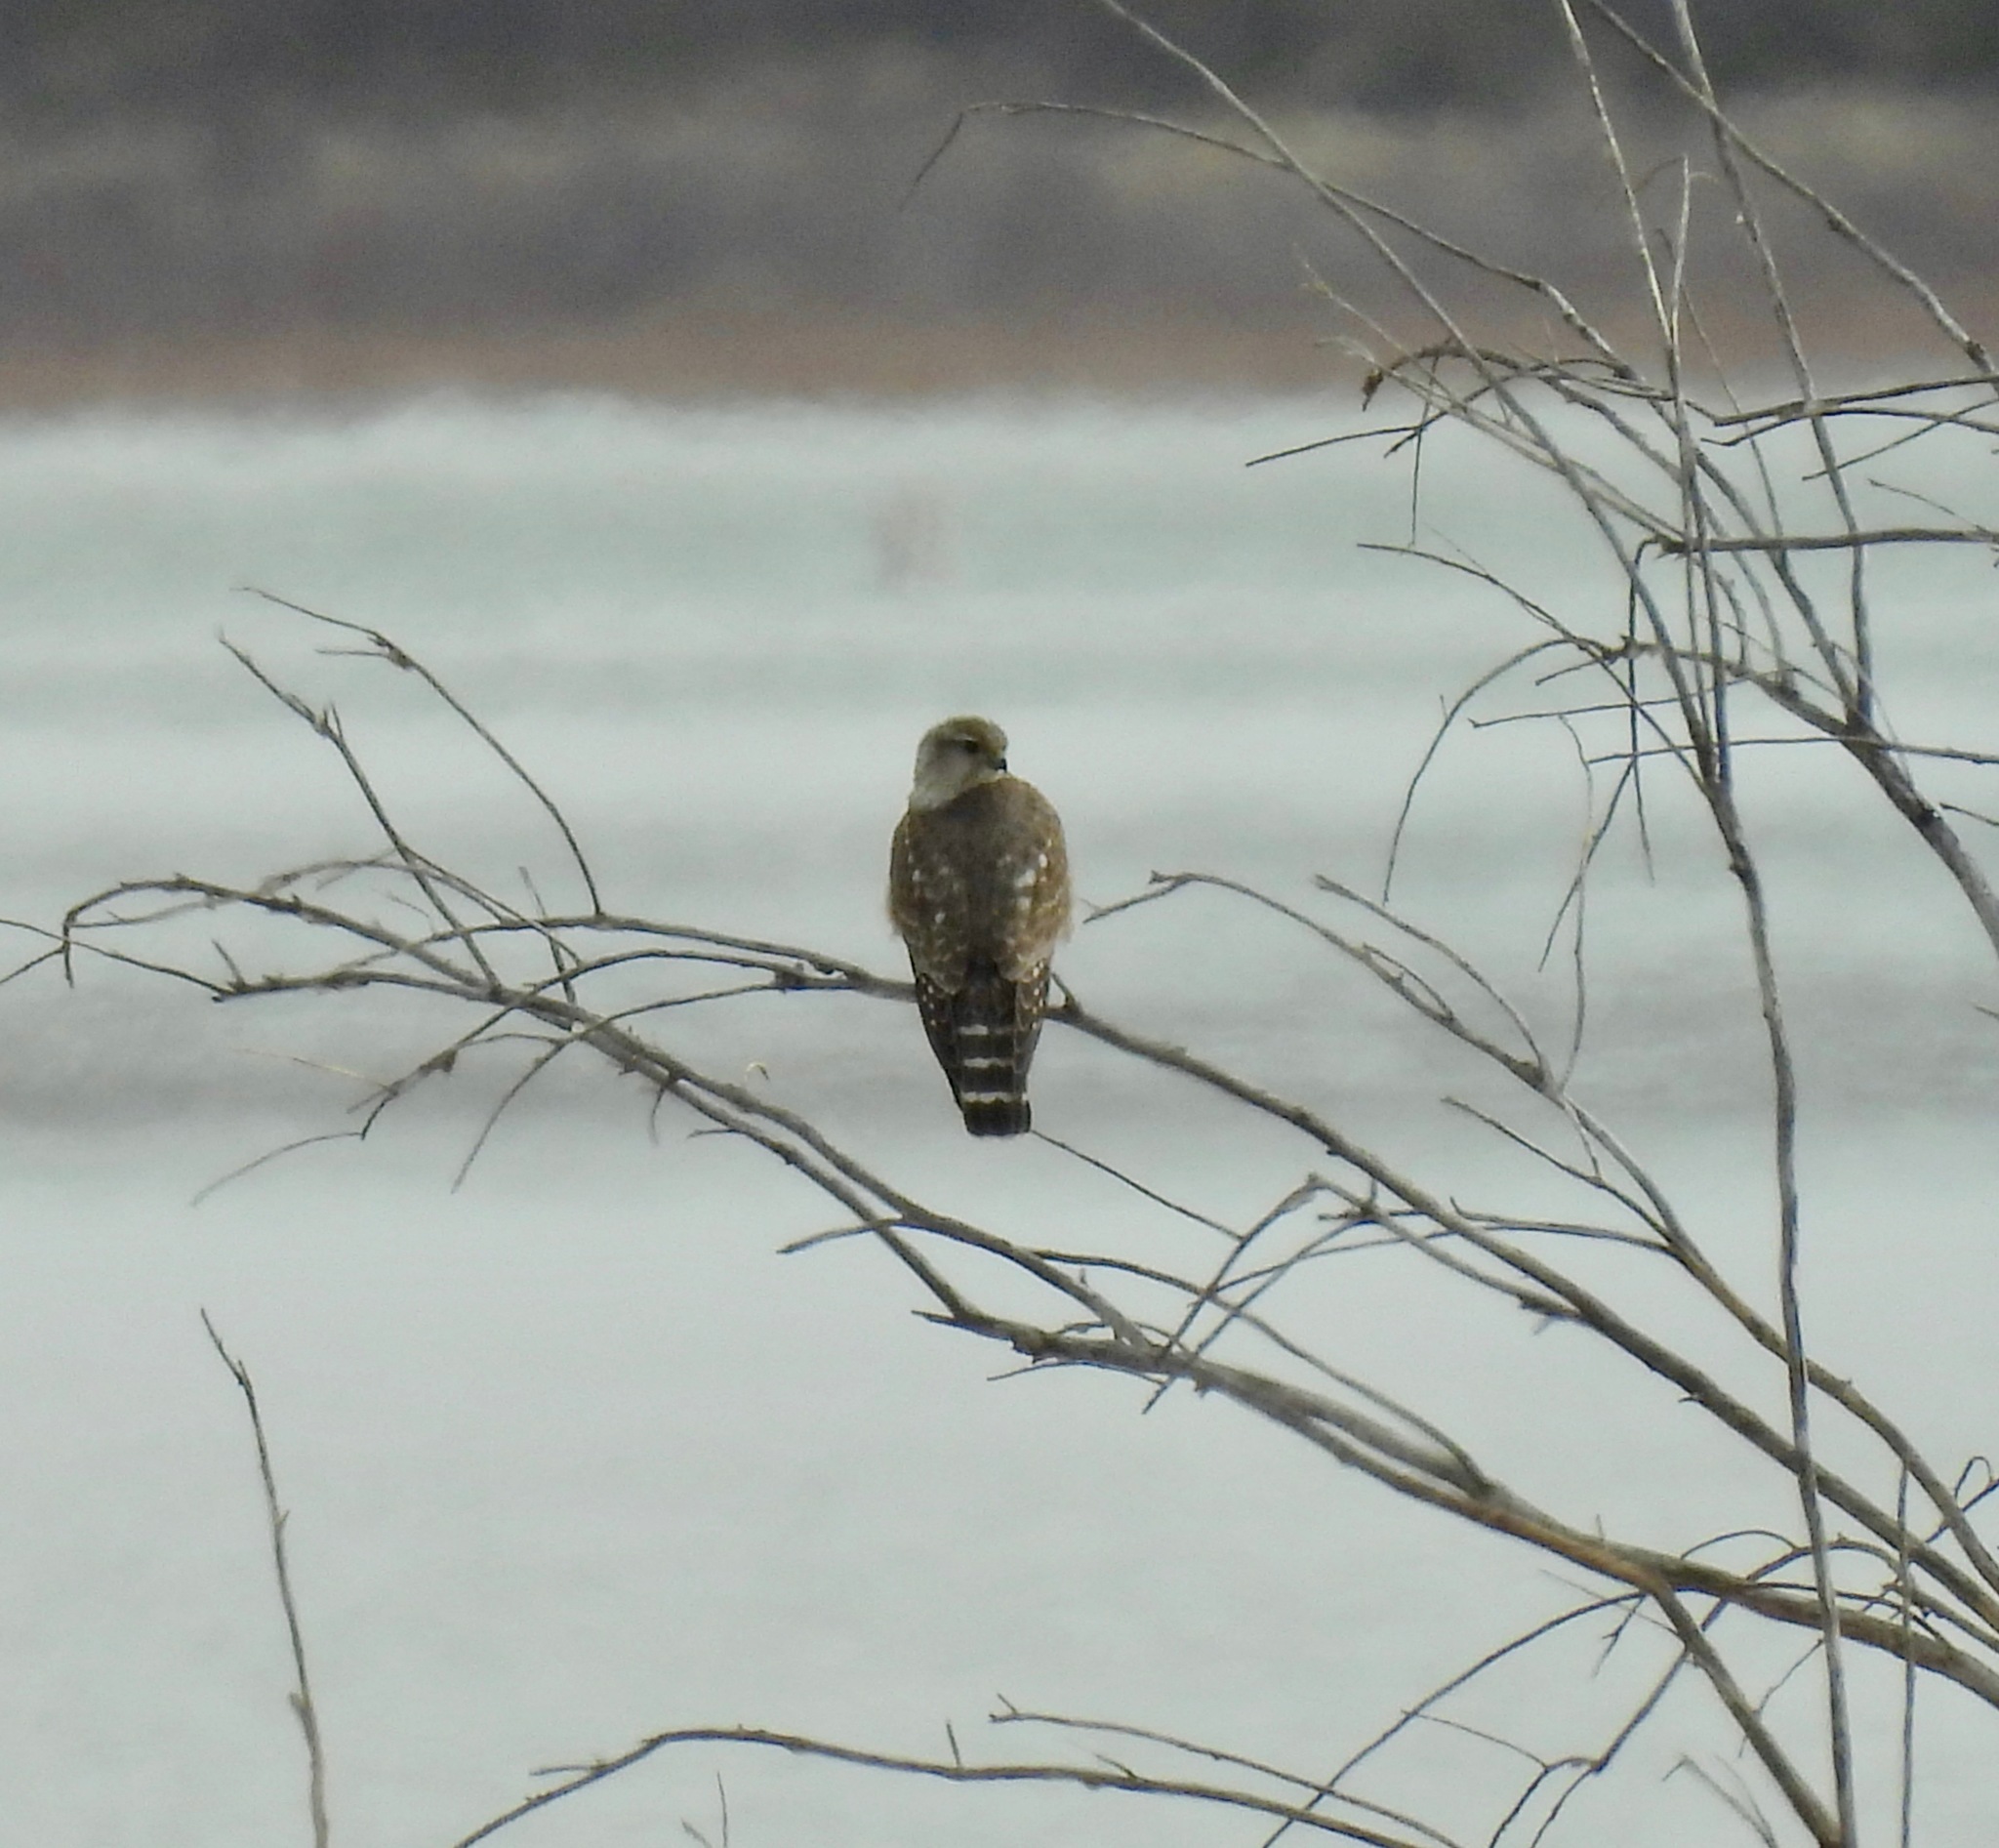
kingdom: Animalia
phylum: Chordata
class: Aves
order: Falconiformes
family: Falconidae
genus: Falco
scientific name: Falco columbarius
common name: Merlin
